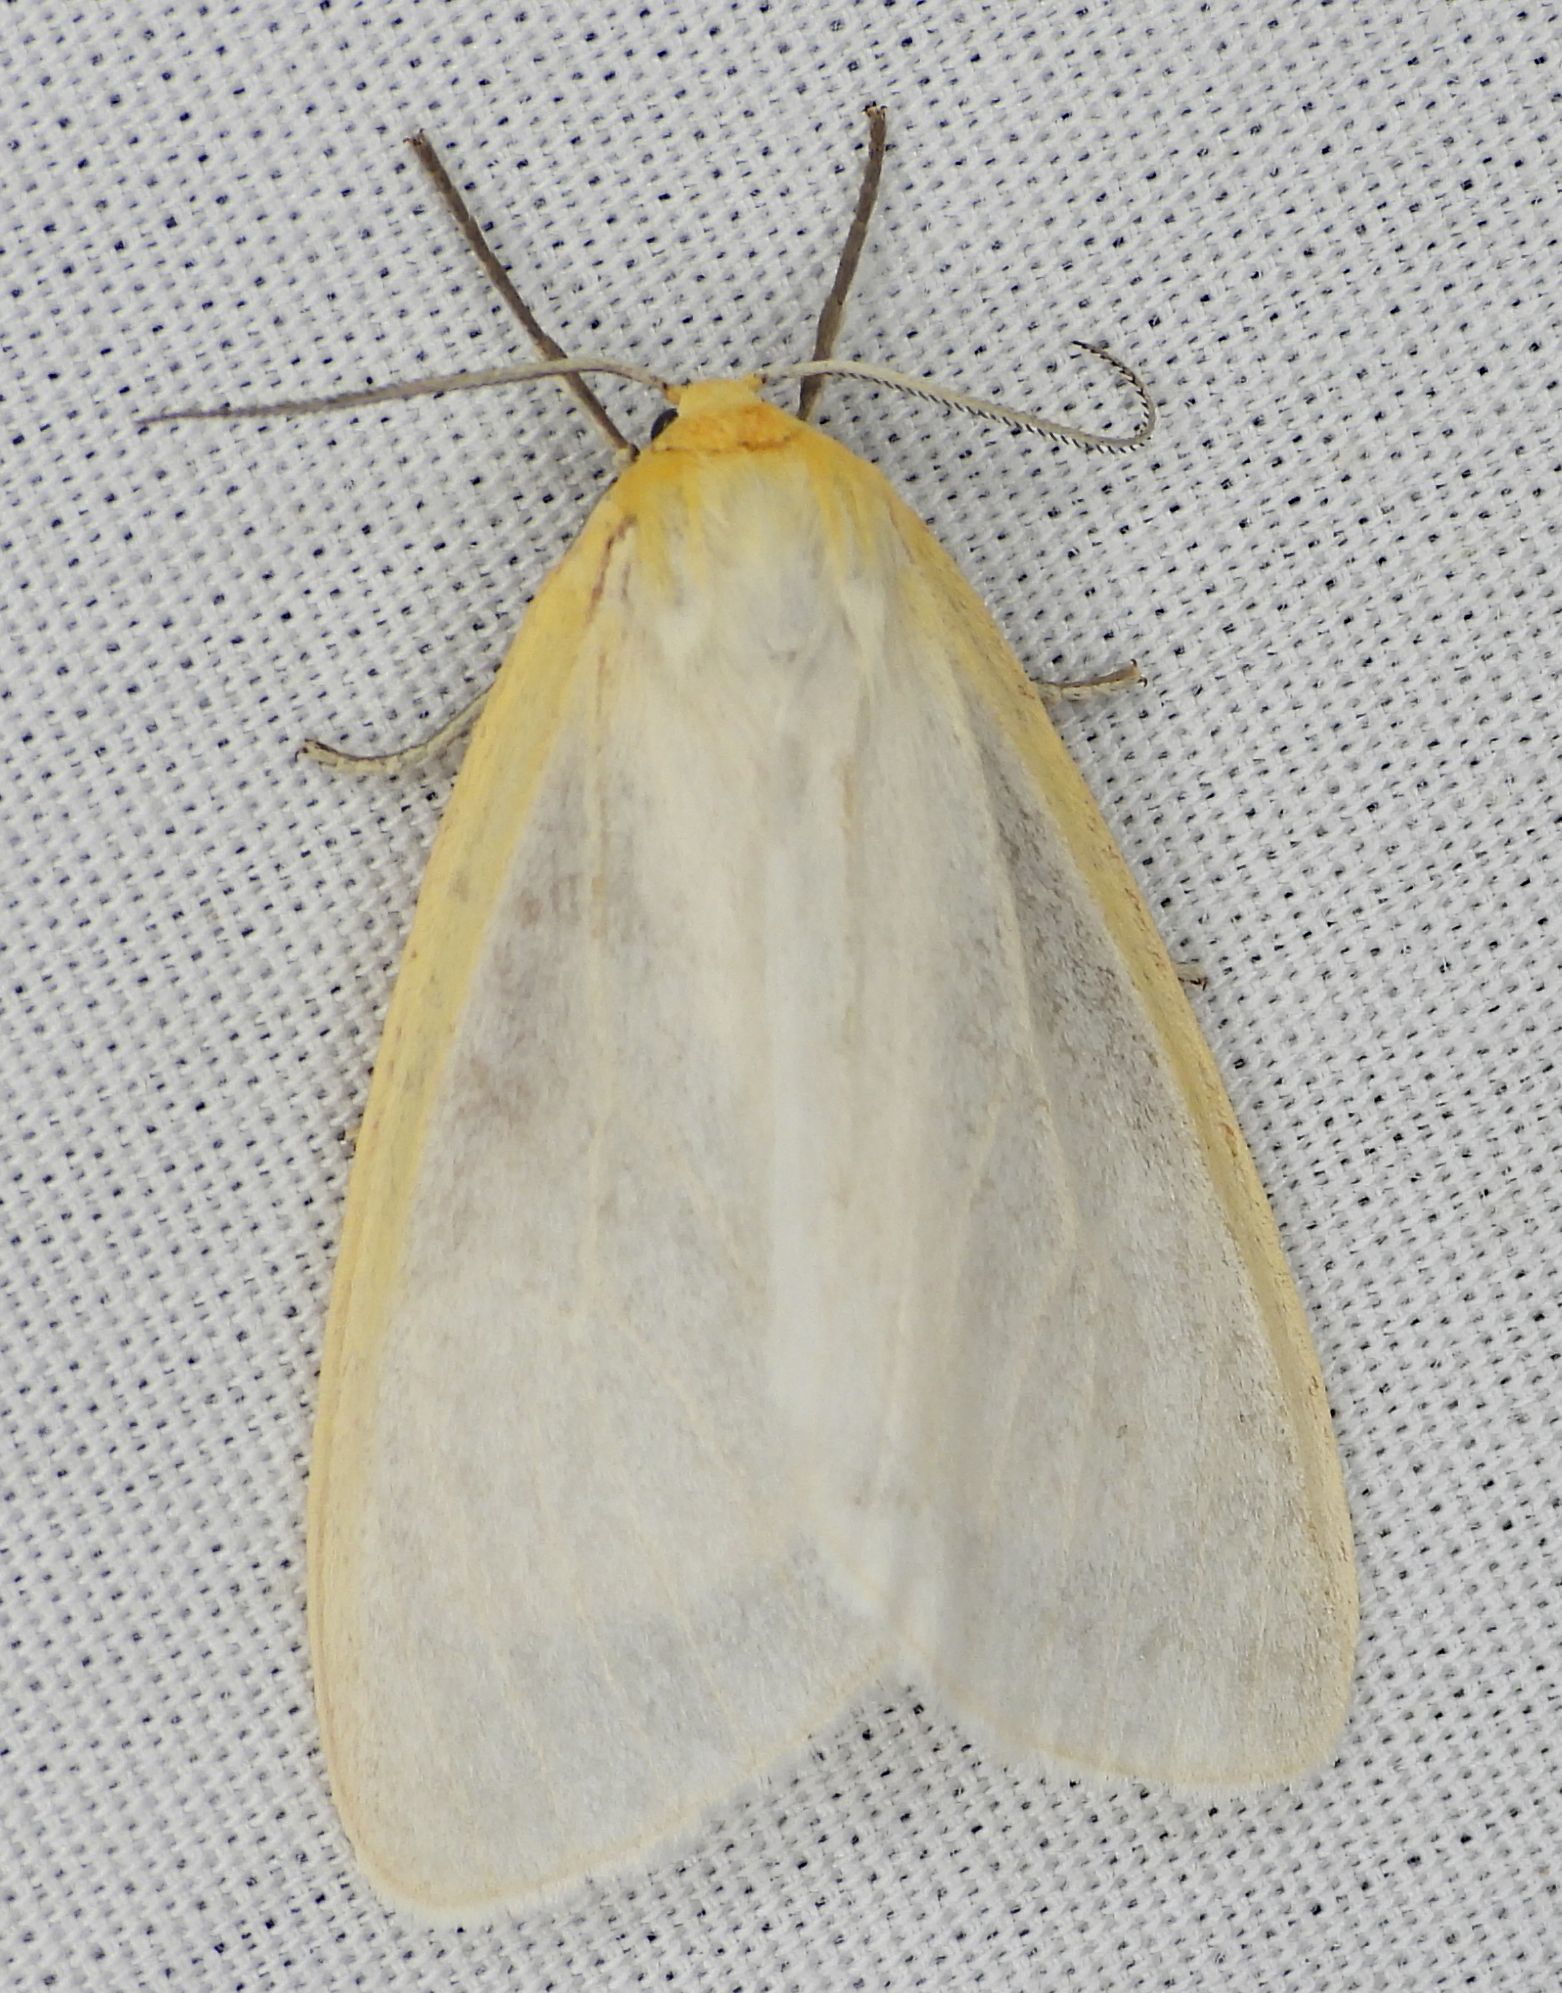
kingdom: Animalia
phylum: Arthropoda
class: Insecta
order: Lepidoptera
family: Erebidae
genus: Cycnia
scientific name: Cycnia tenera
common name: Delicate cycnia moth
